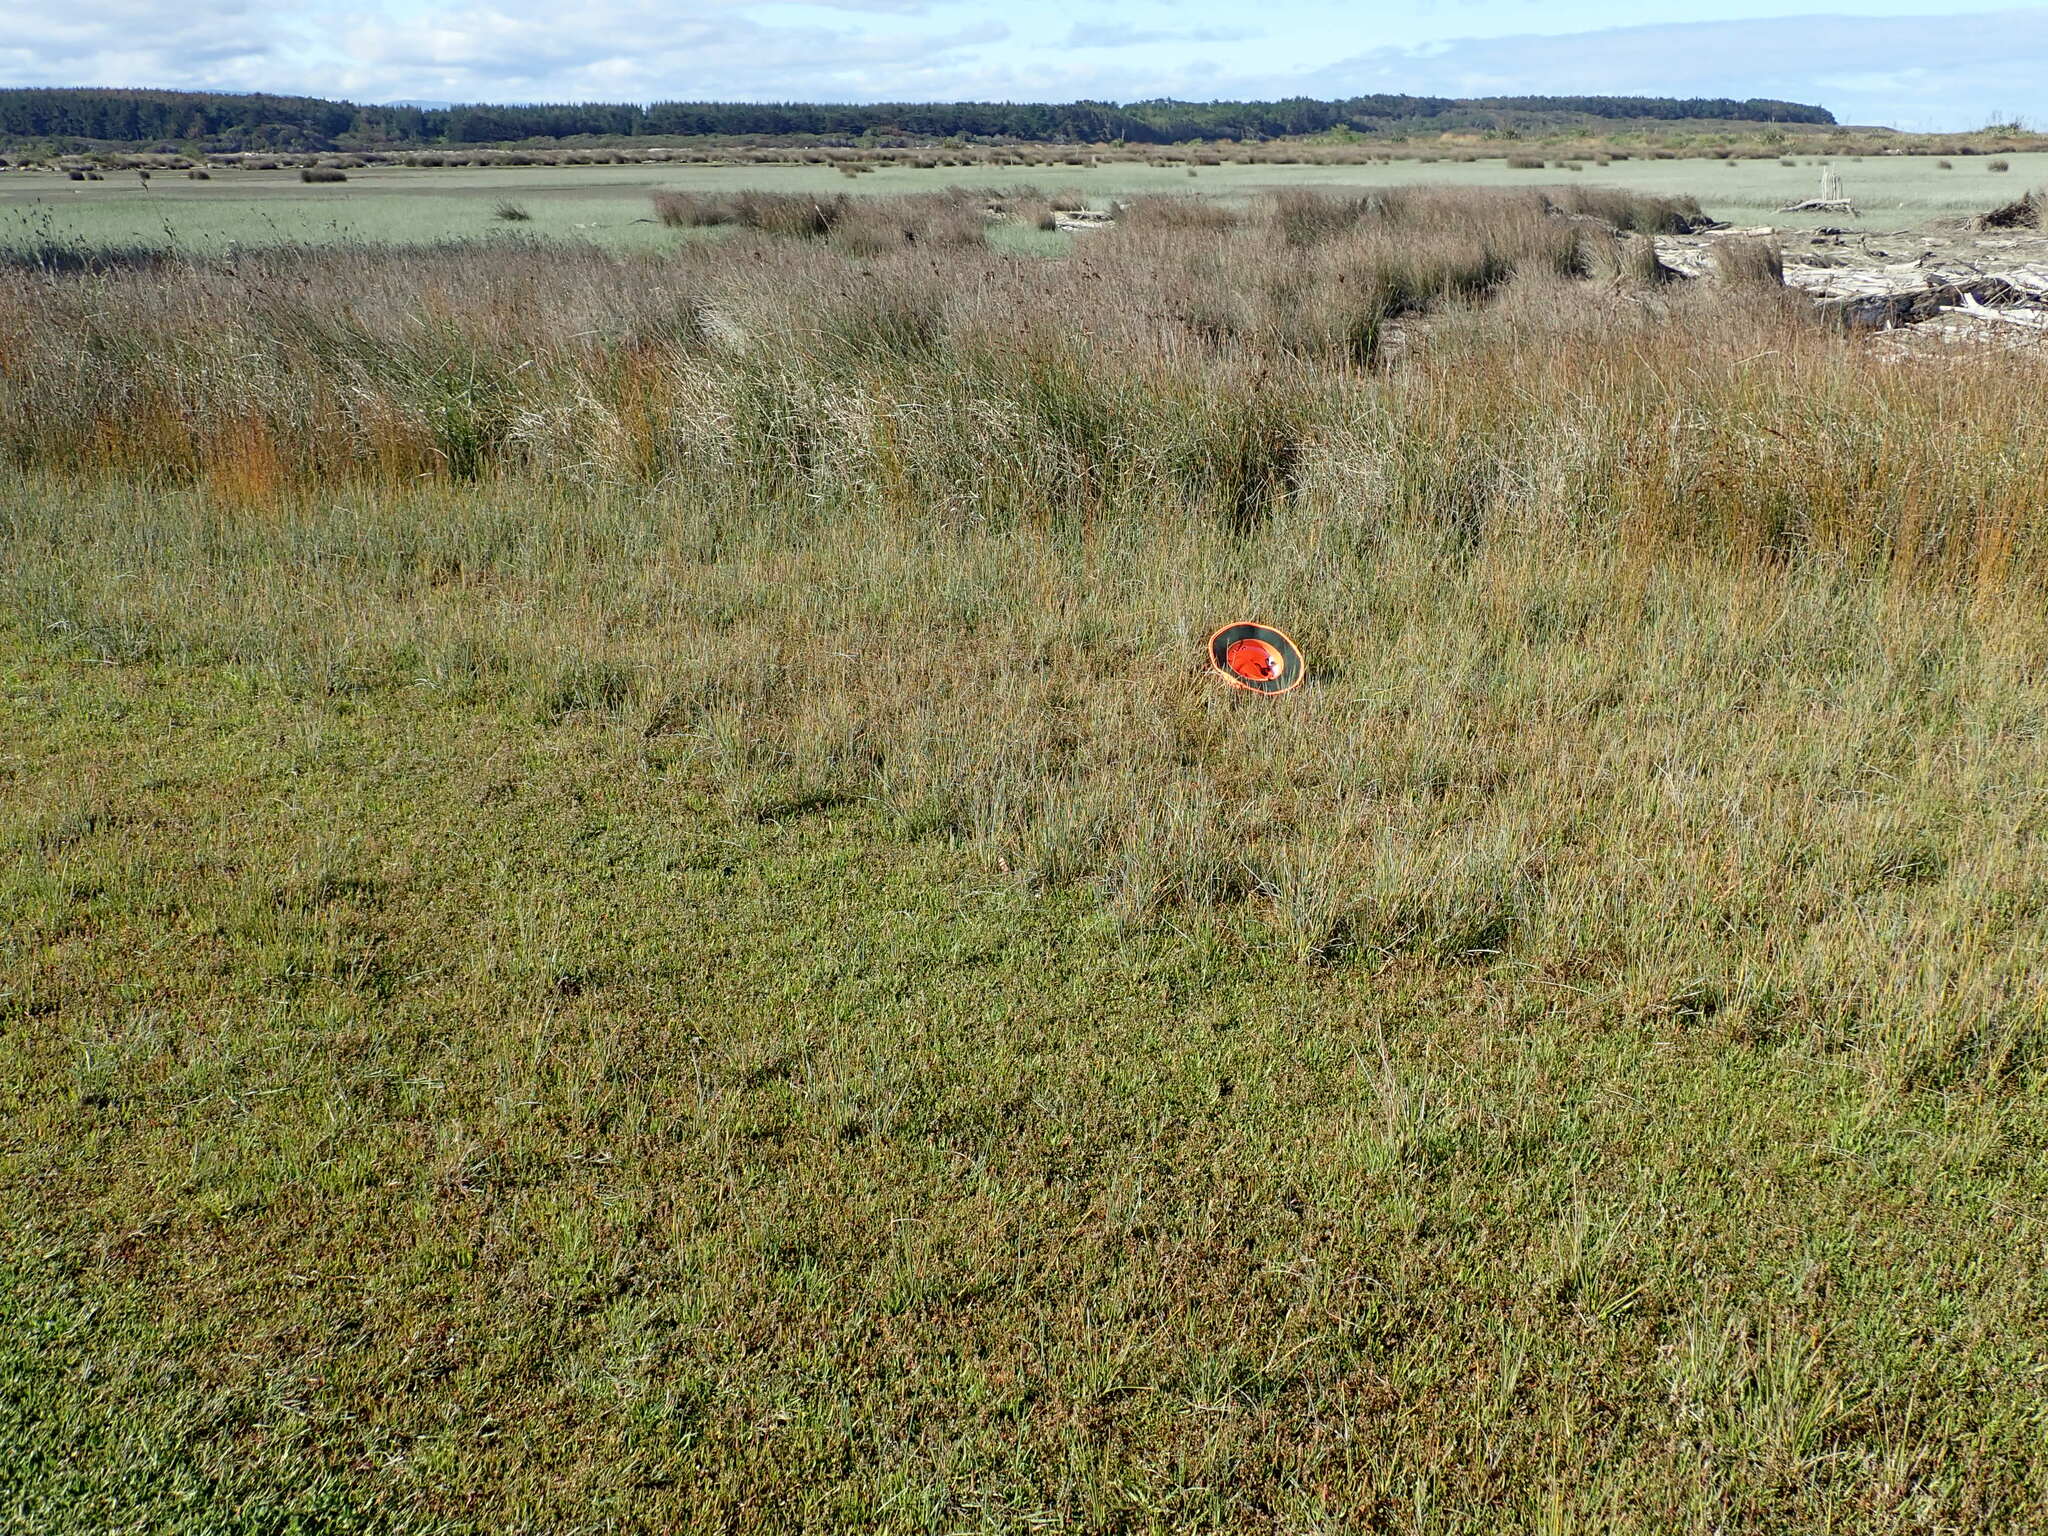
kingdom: Animalia
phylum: Arthropoda
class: Arachnida
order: Araneae
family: Pisauridae
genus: Dolomedes
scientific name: Dolomedes minor
